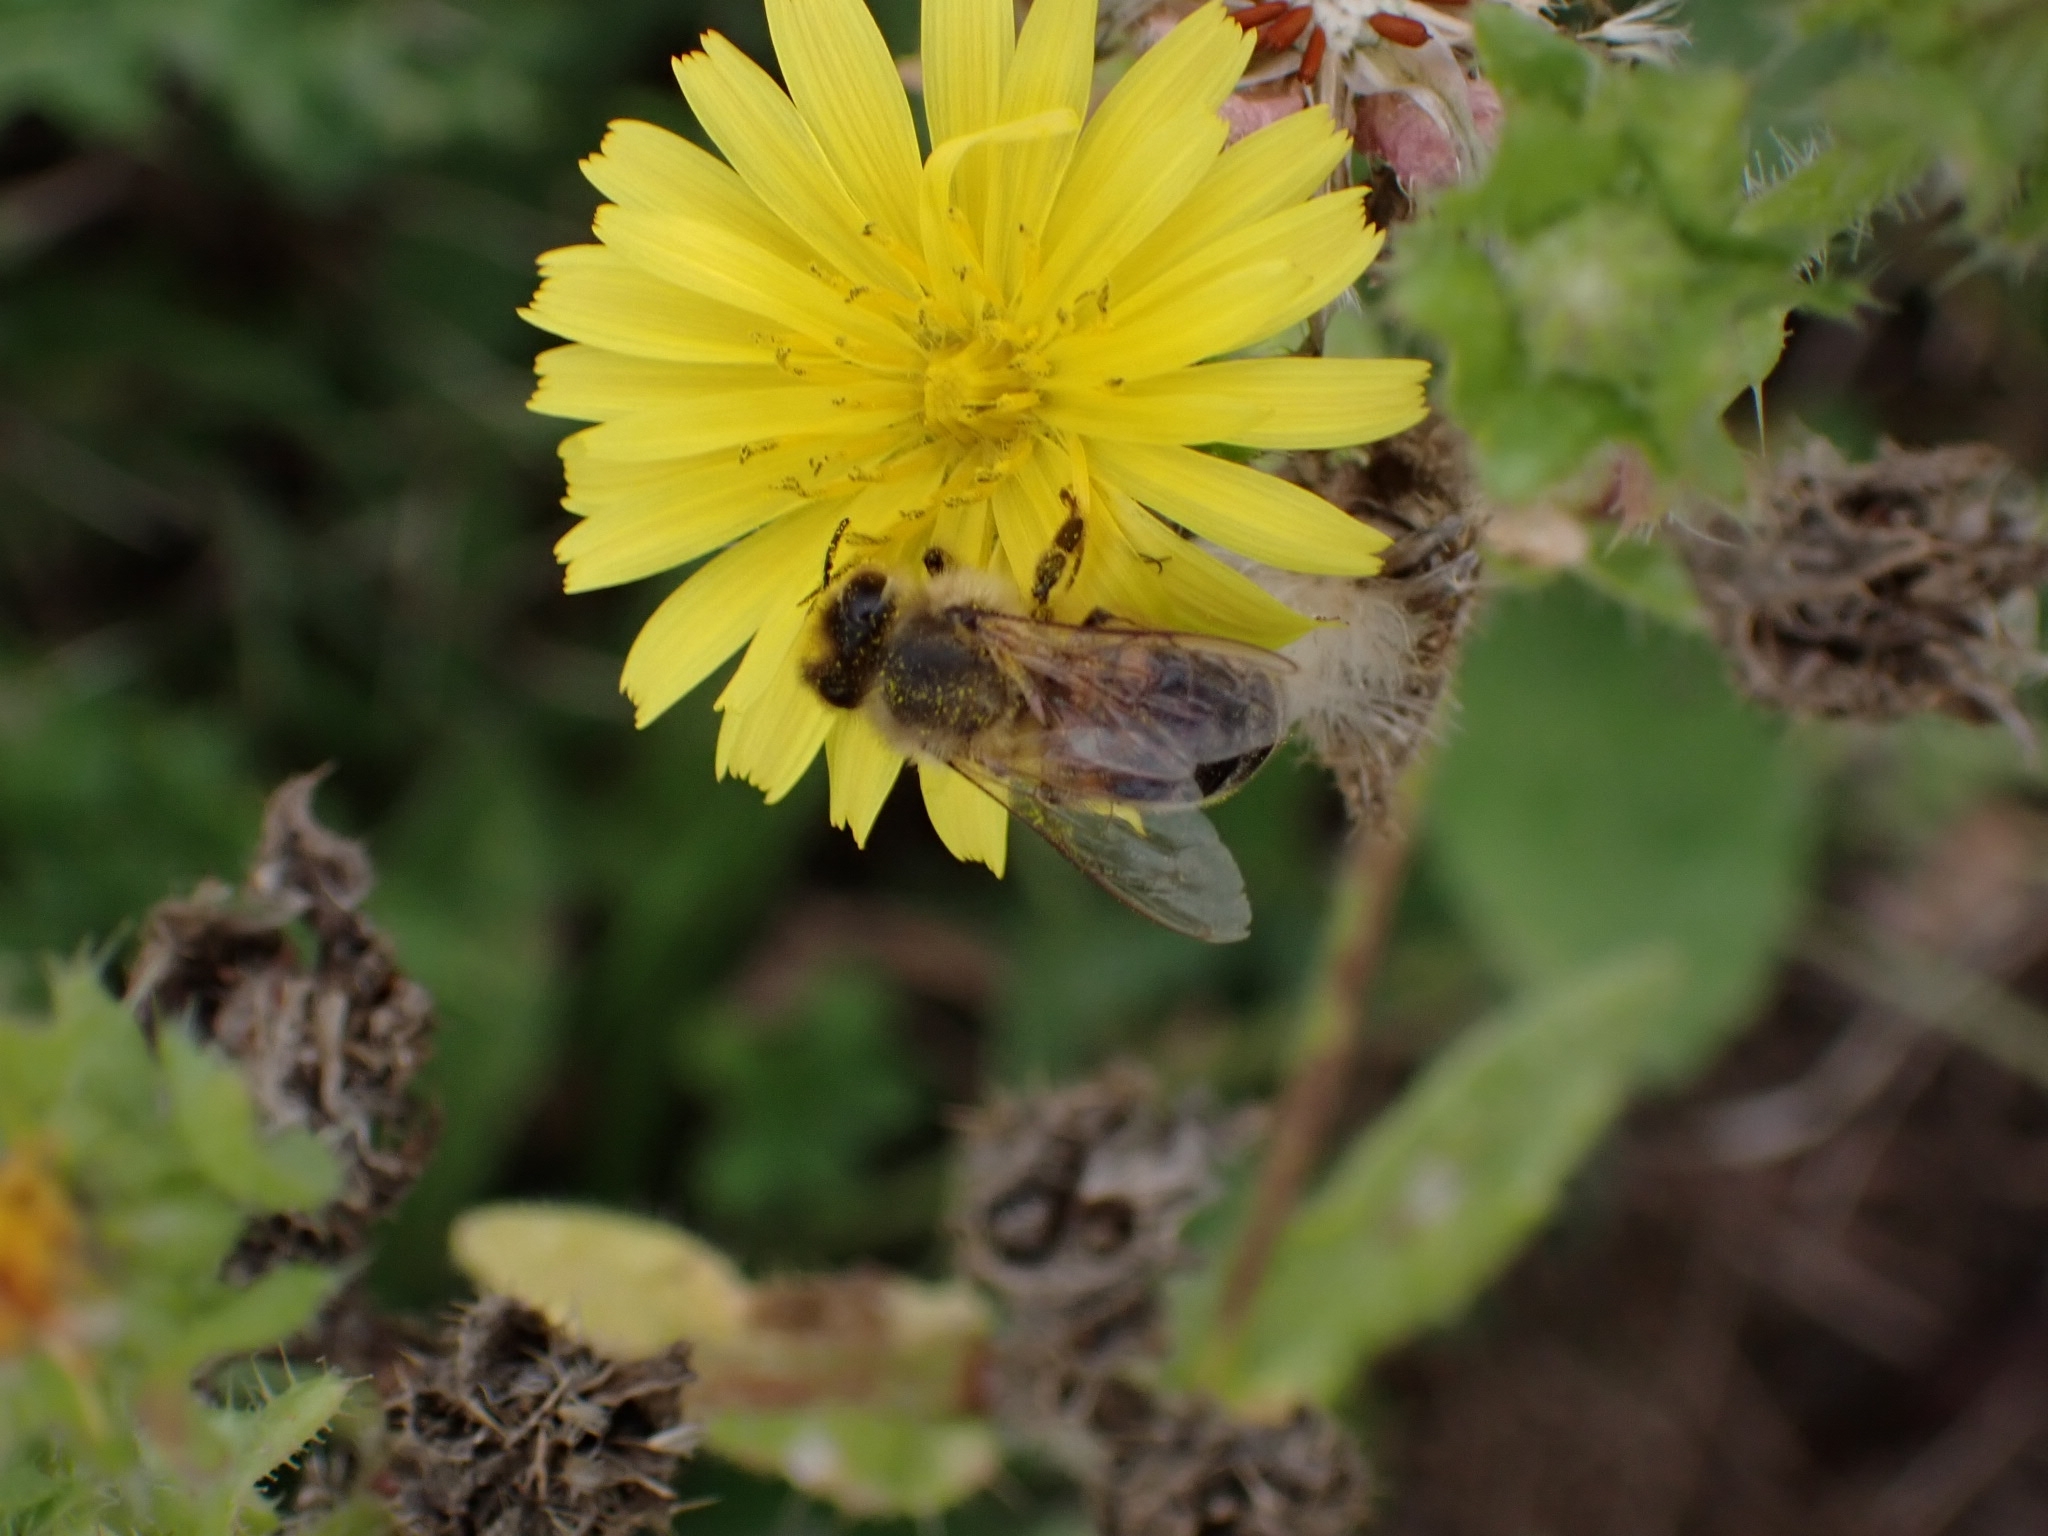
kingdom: Animalia
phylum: Arthropoda
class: Insecta
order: Hymenoptera
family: Apidae
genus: Apis
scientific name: Apis mellifera
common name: Honey bee
